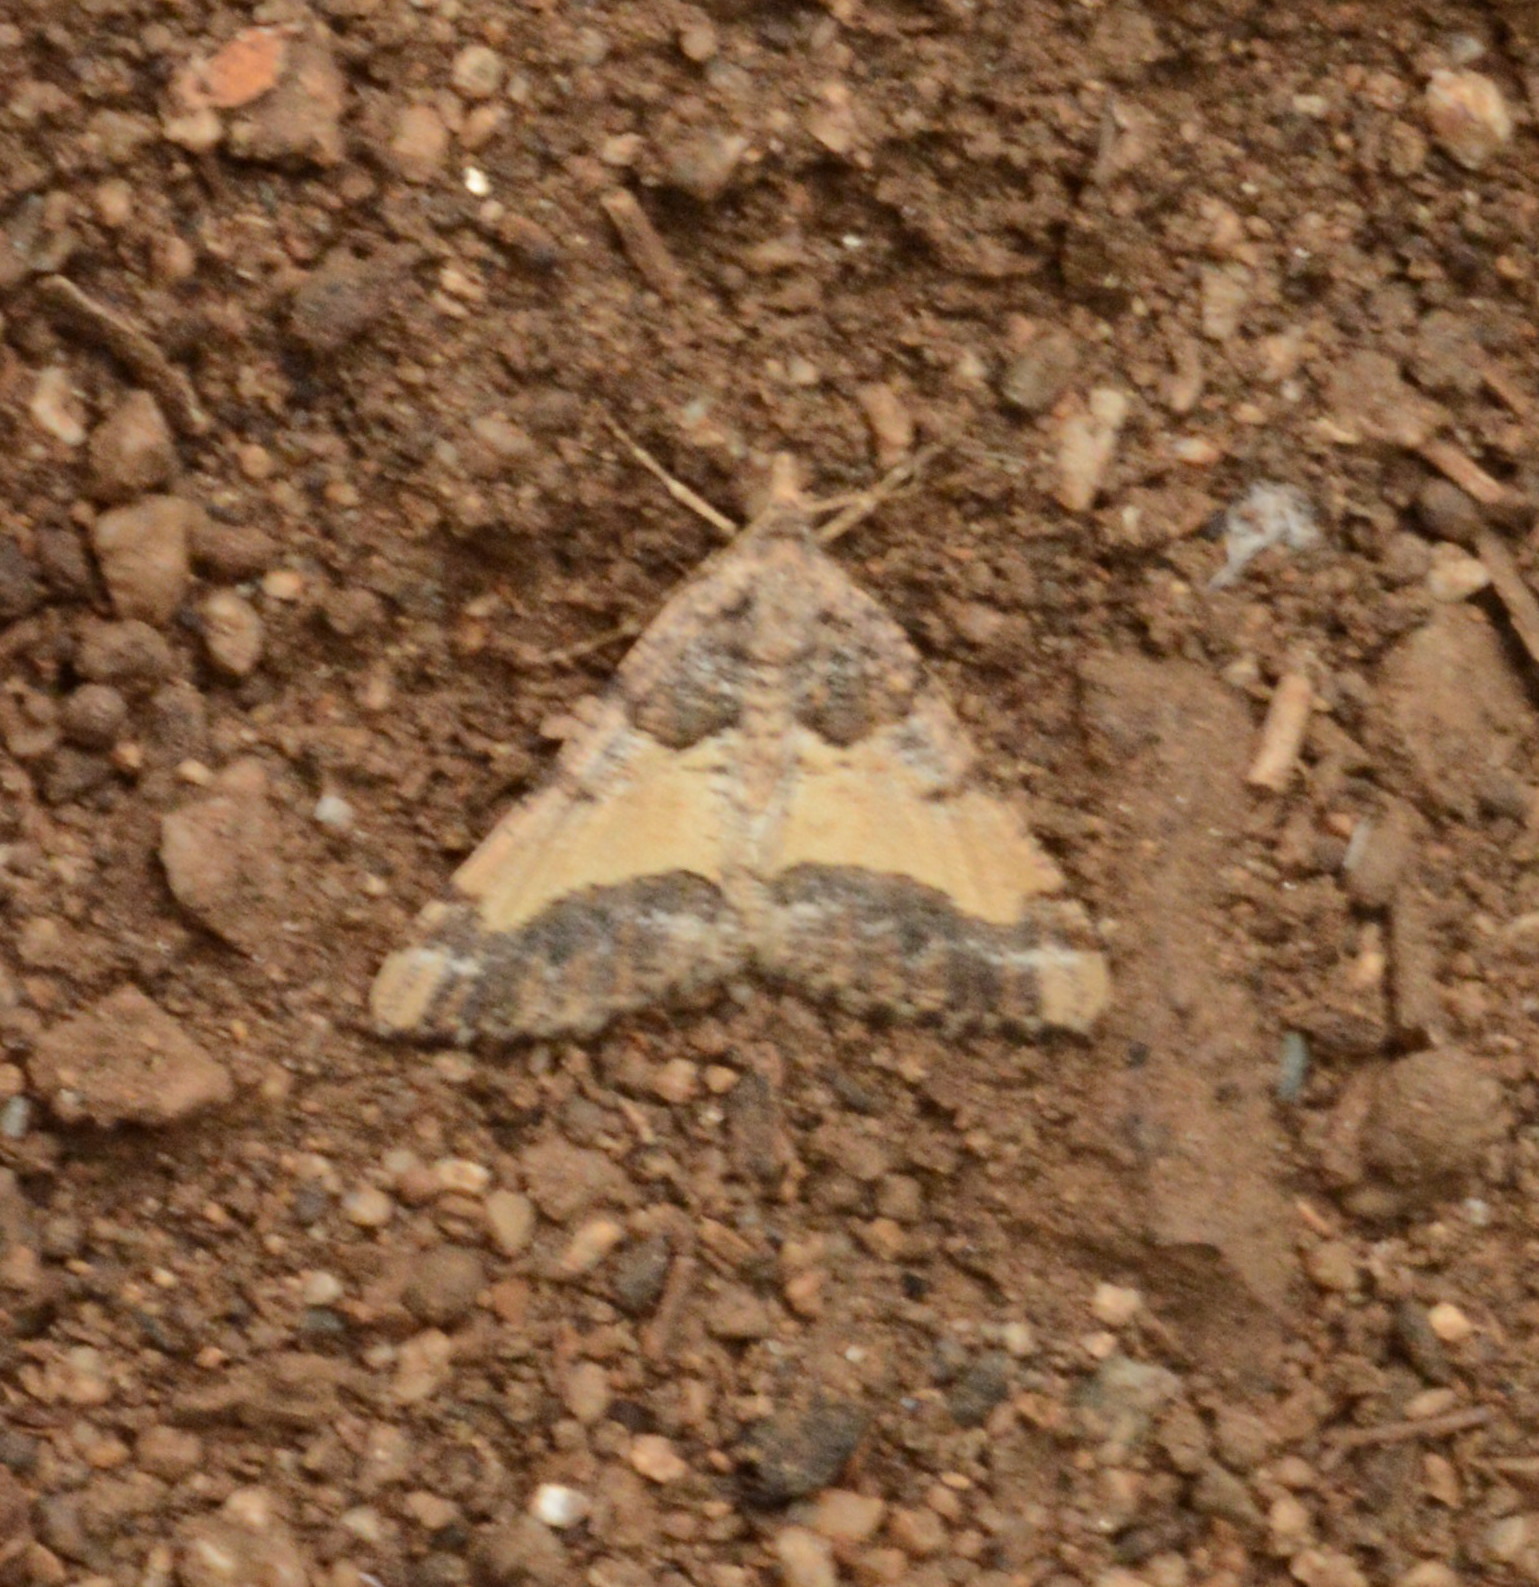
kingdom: Animalia
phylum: Arthropoda
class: Insecta
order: Lepidoptera
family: Geometridae
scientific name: Geometridae
